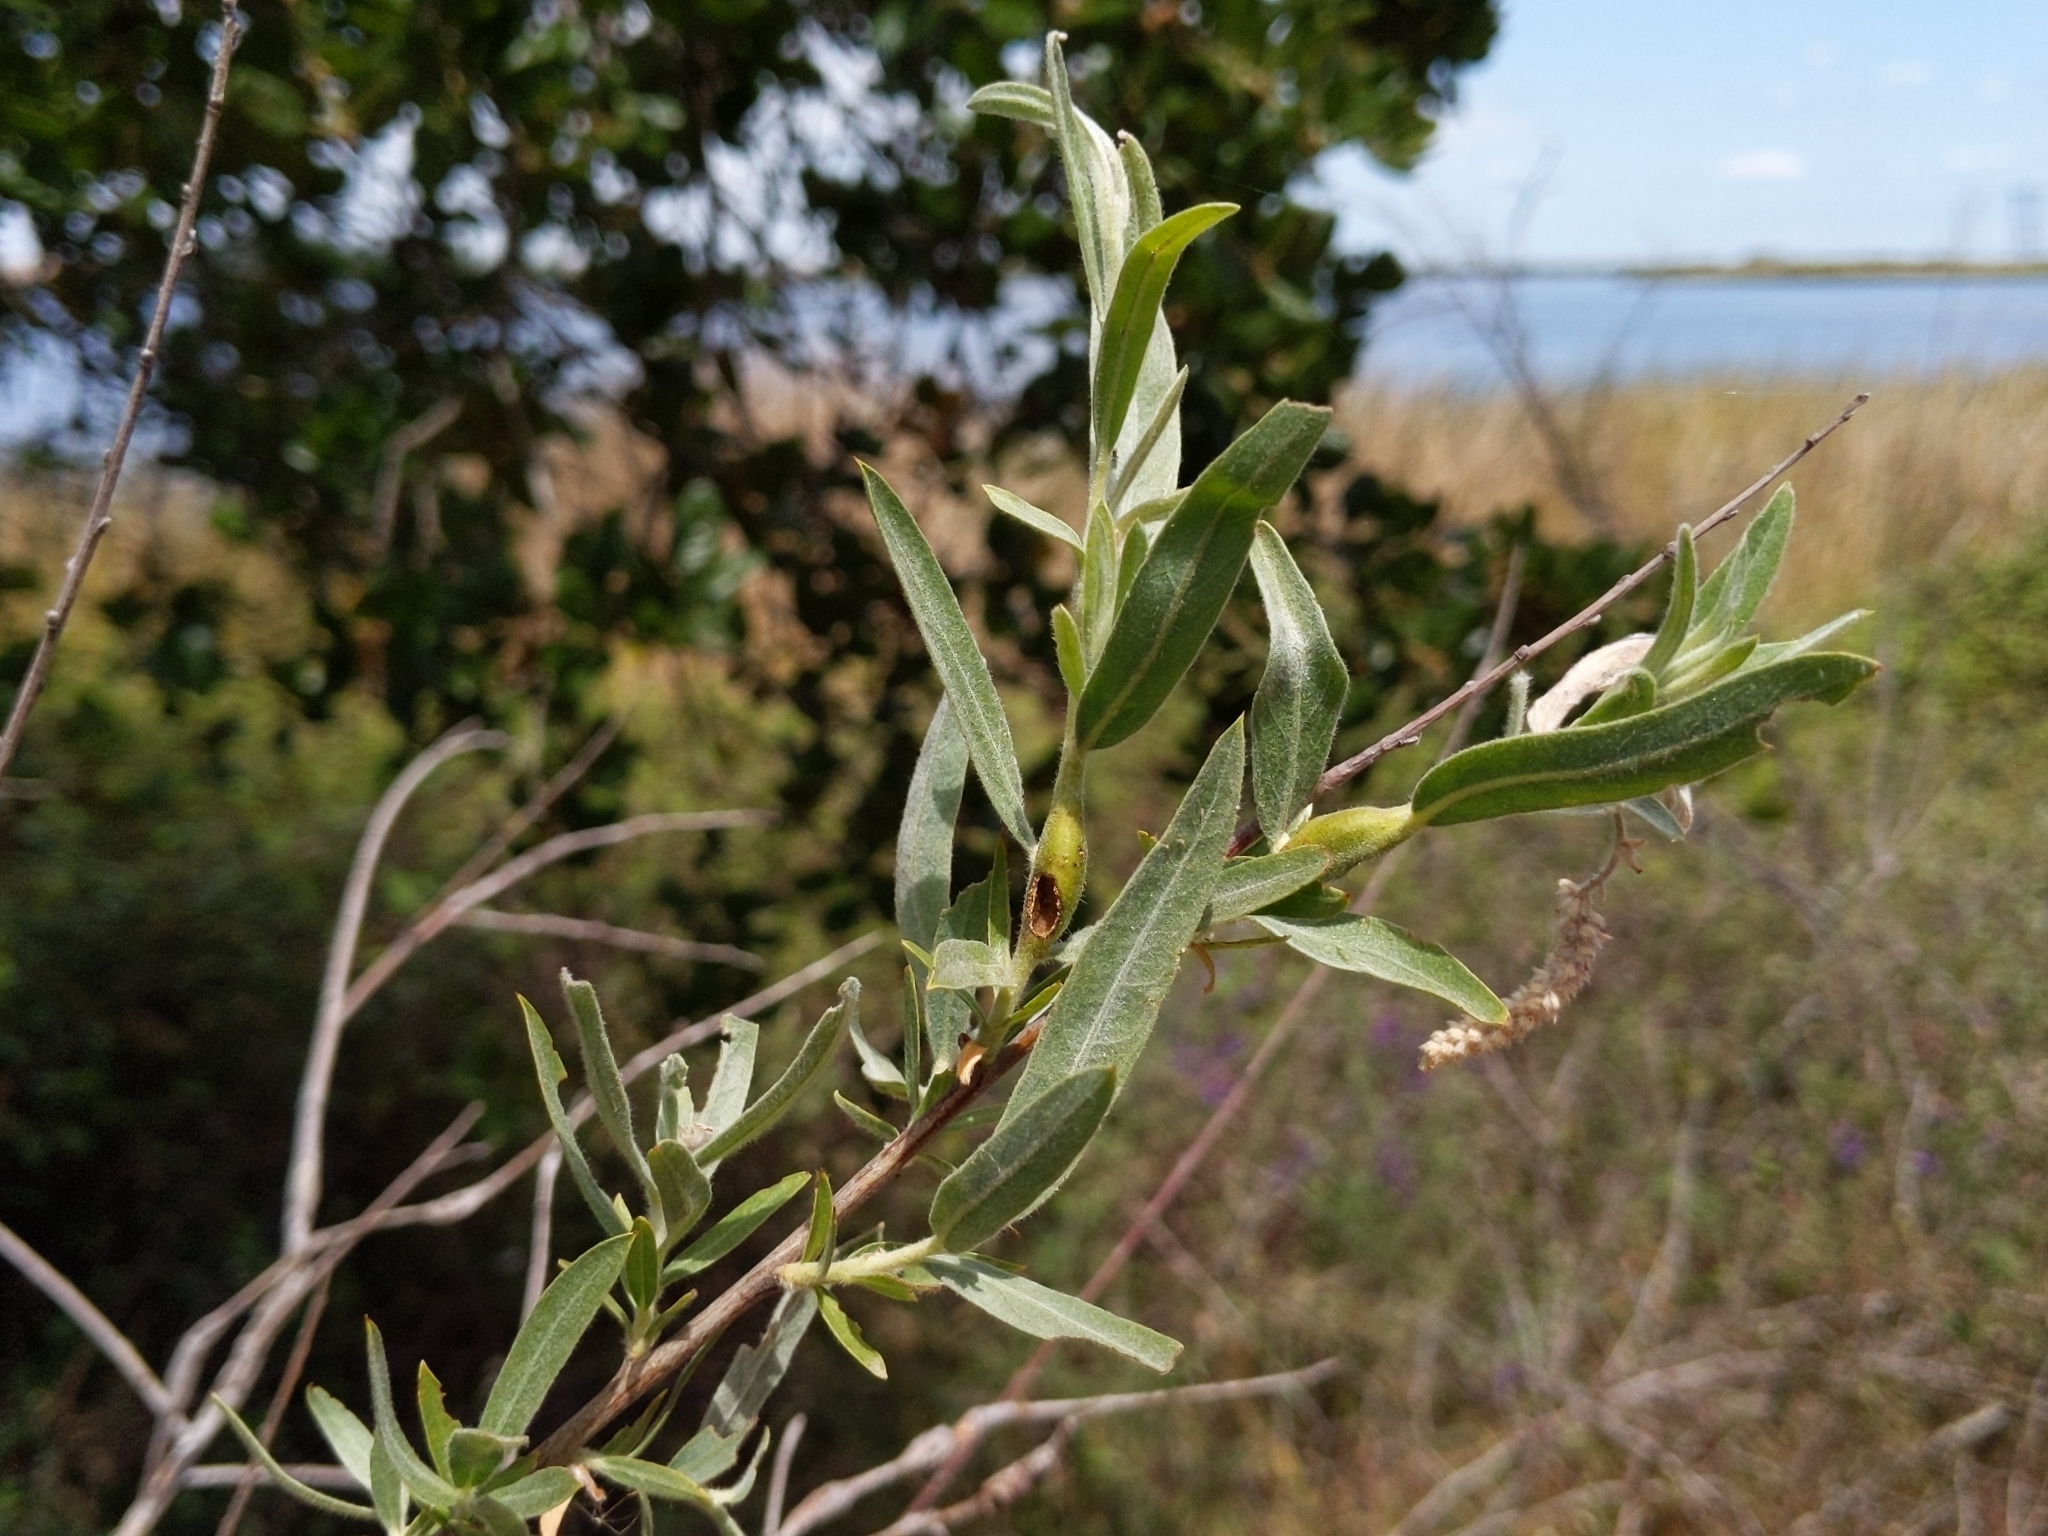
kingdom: Plantae
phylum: Tracheophyta
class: Magnoliopsida
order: Malpighiales
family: Salicaceae
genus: Salix
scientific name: Salix exigua
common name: Coyote willow
